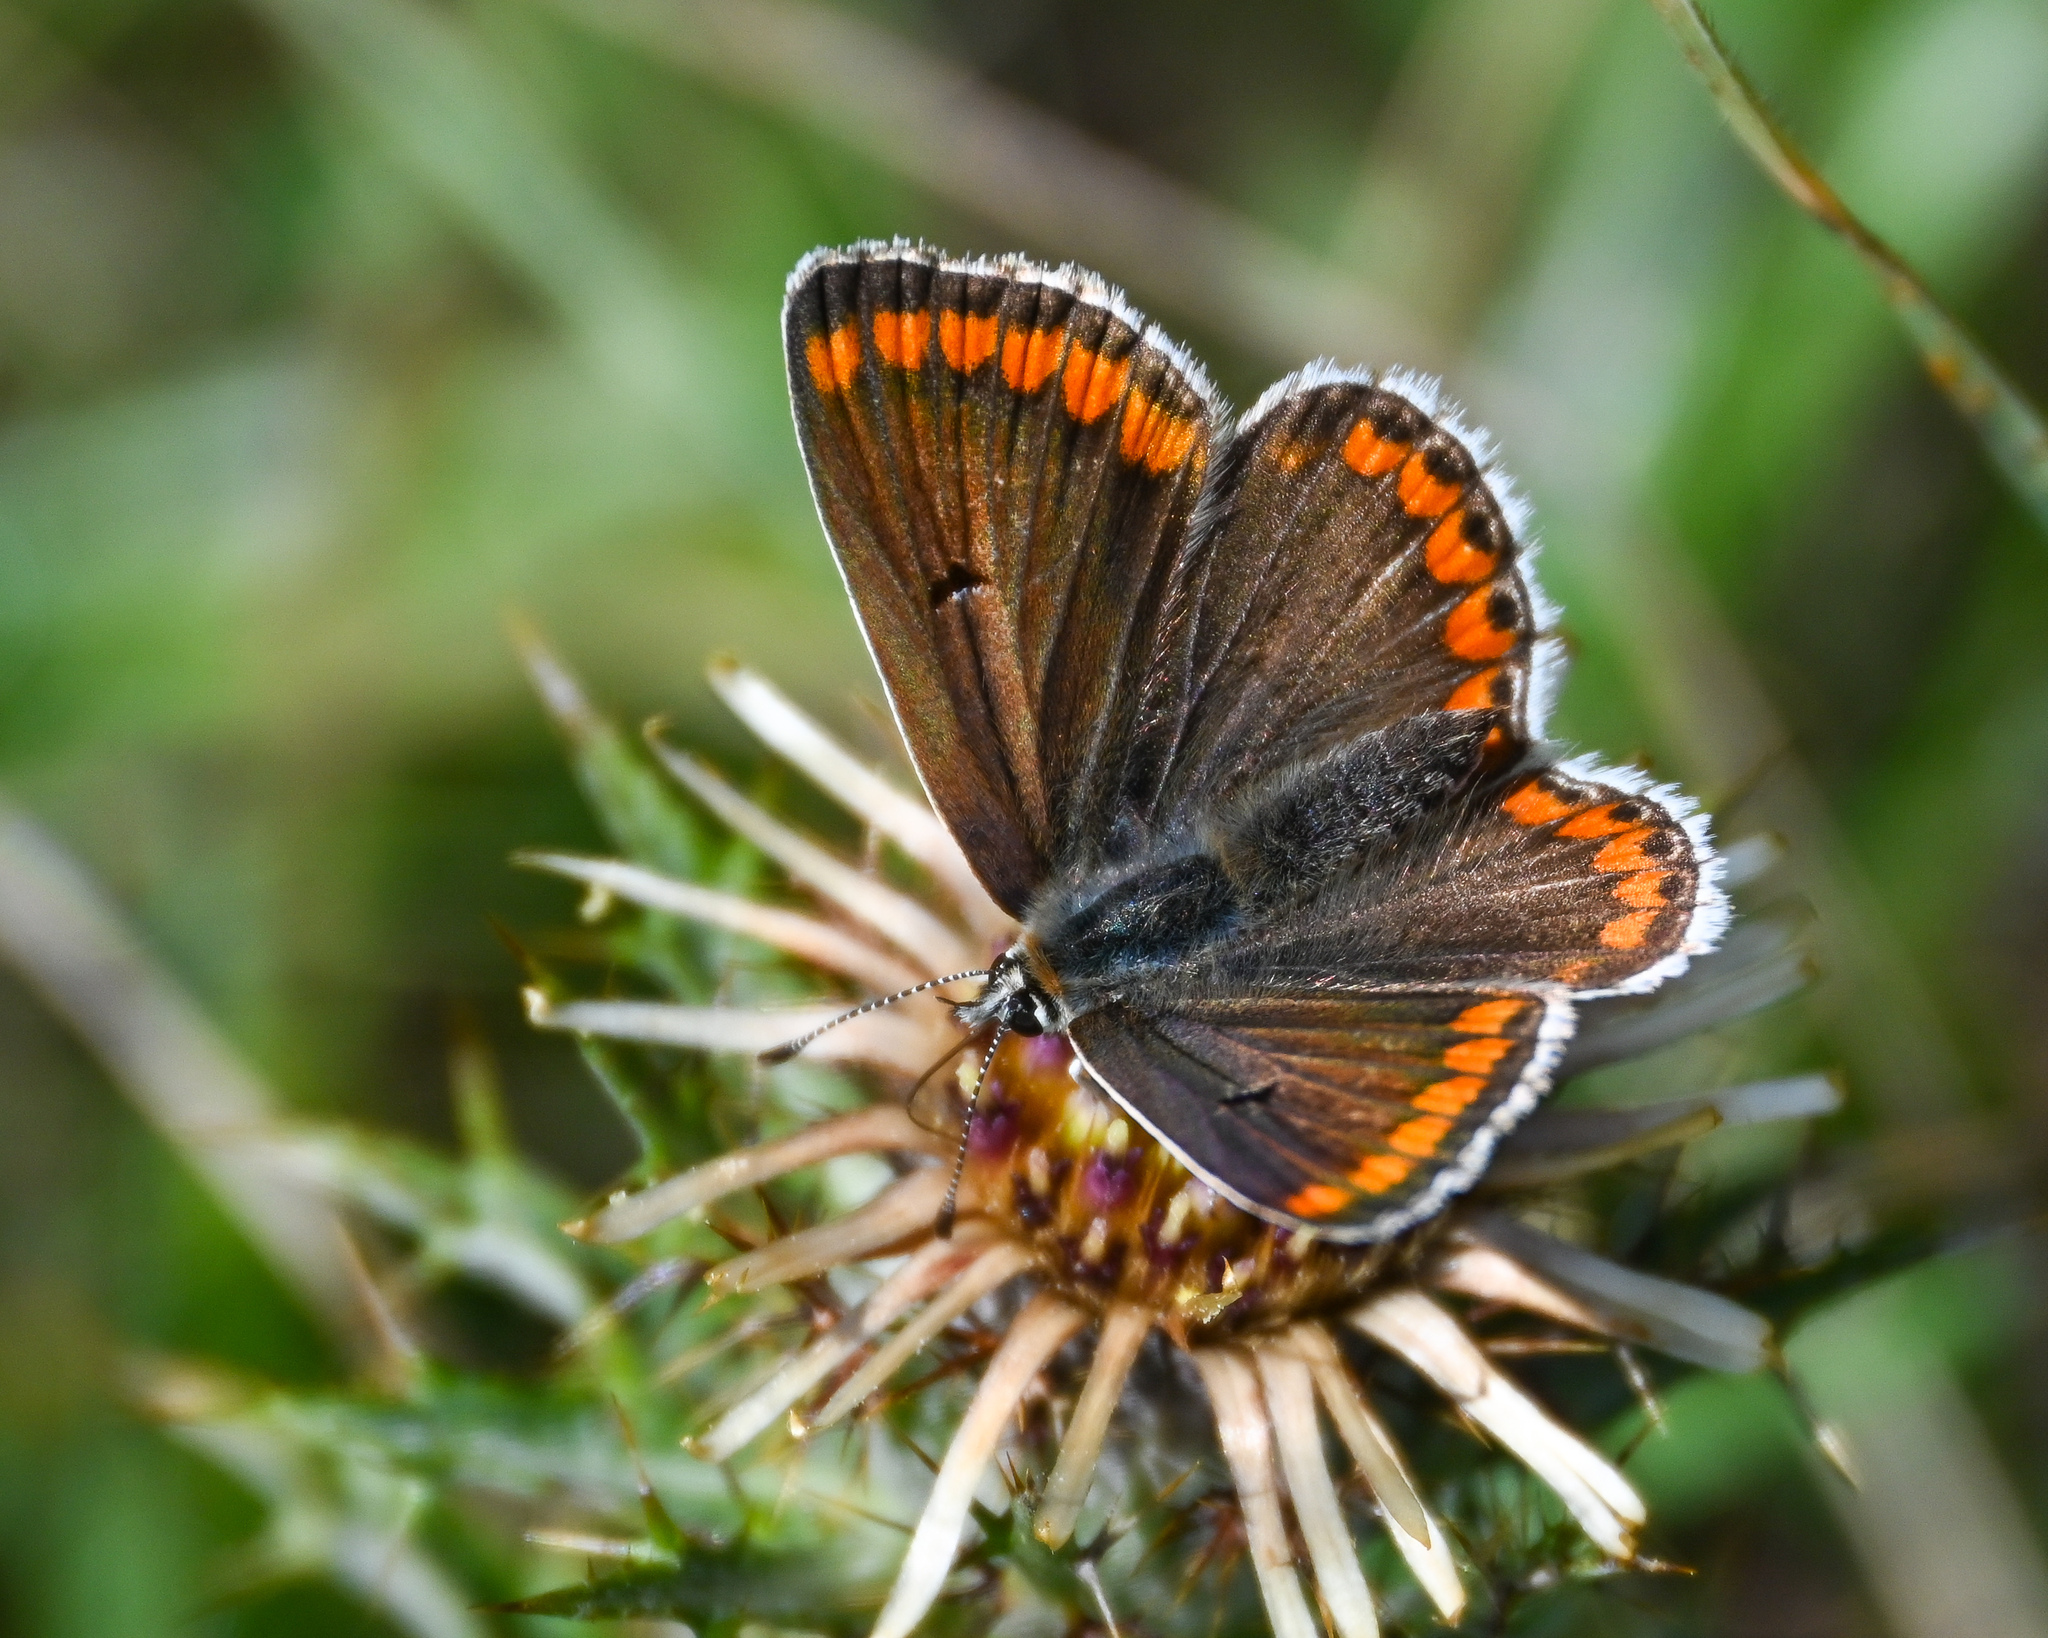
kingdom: Animalia
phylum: Arthropoda
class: Insecta
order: Lepidoptera
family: Lycaenidae
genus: Aricia
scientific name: Aricia agestis
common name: Brown argus
